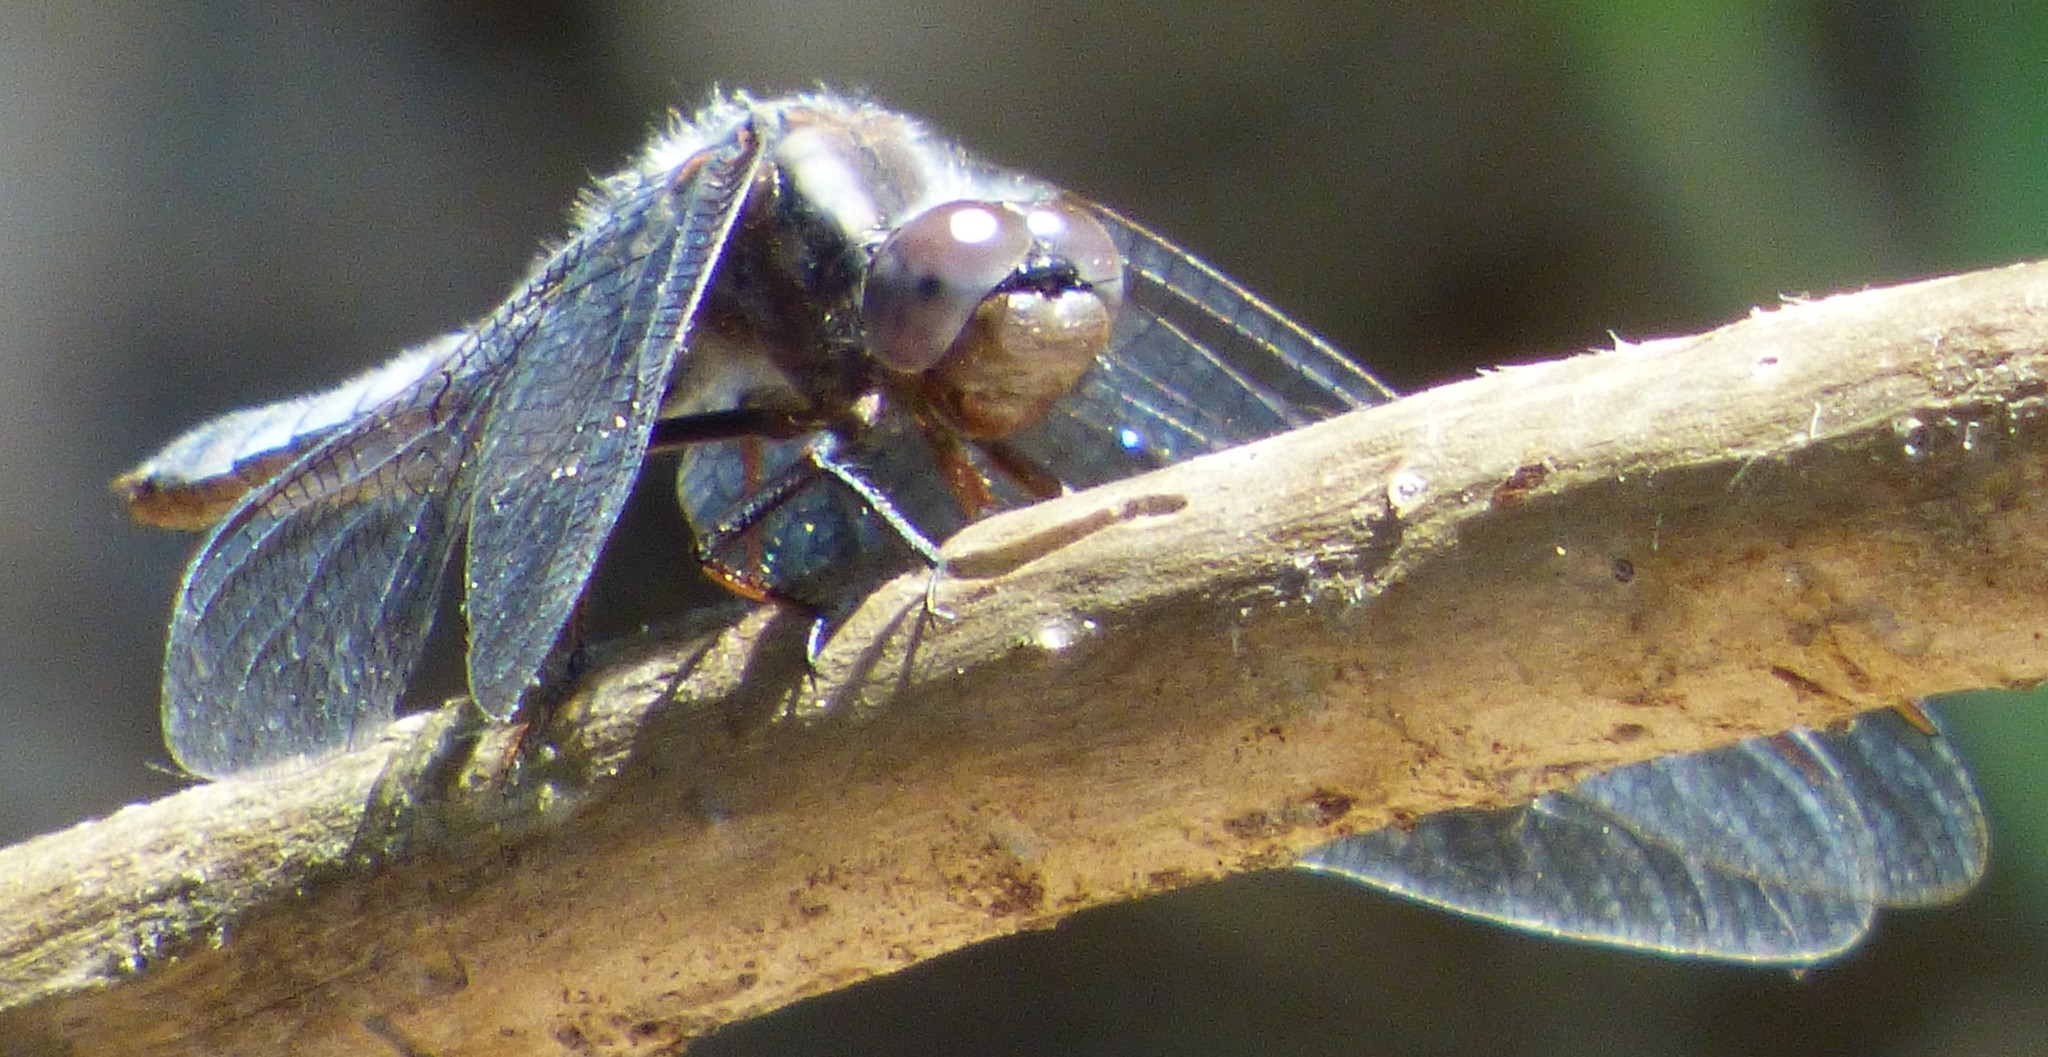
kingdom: Animalia
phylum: Arthropoda
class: Insecta
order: Odonata
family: Libellulidae
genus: Ladona
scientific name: Ladona deplanata
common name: Blue corporal
